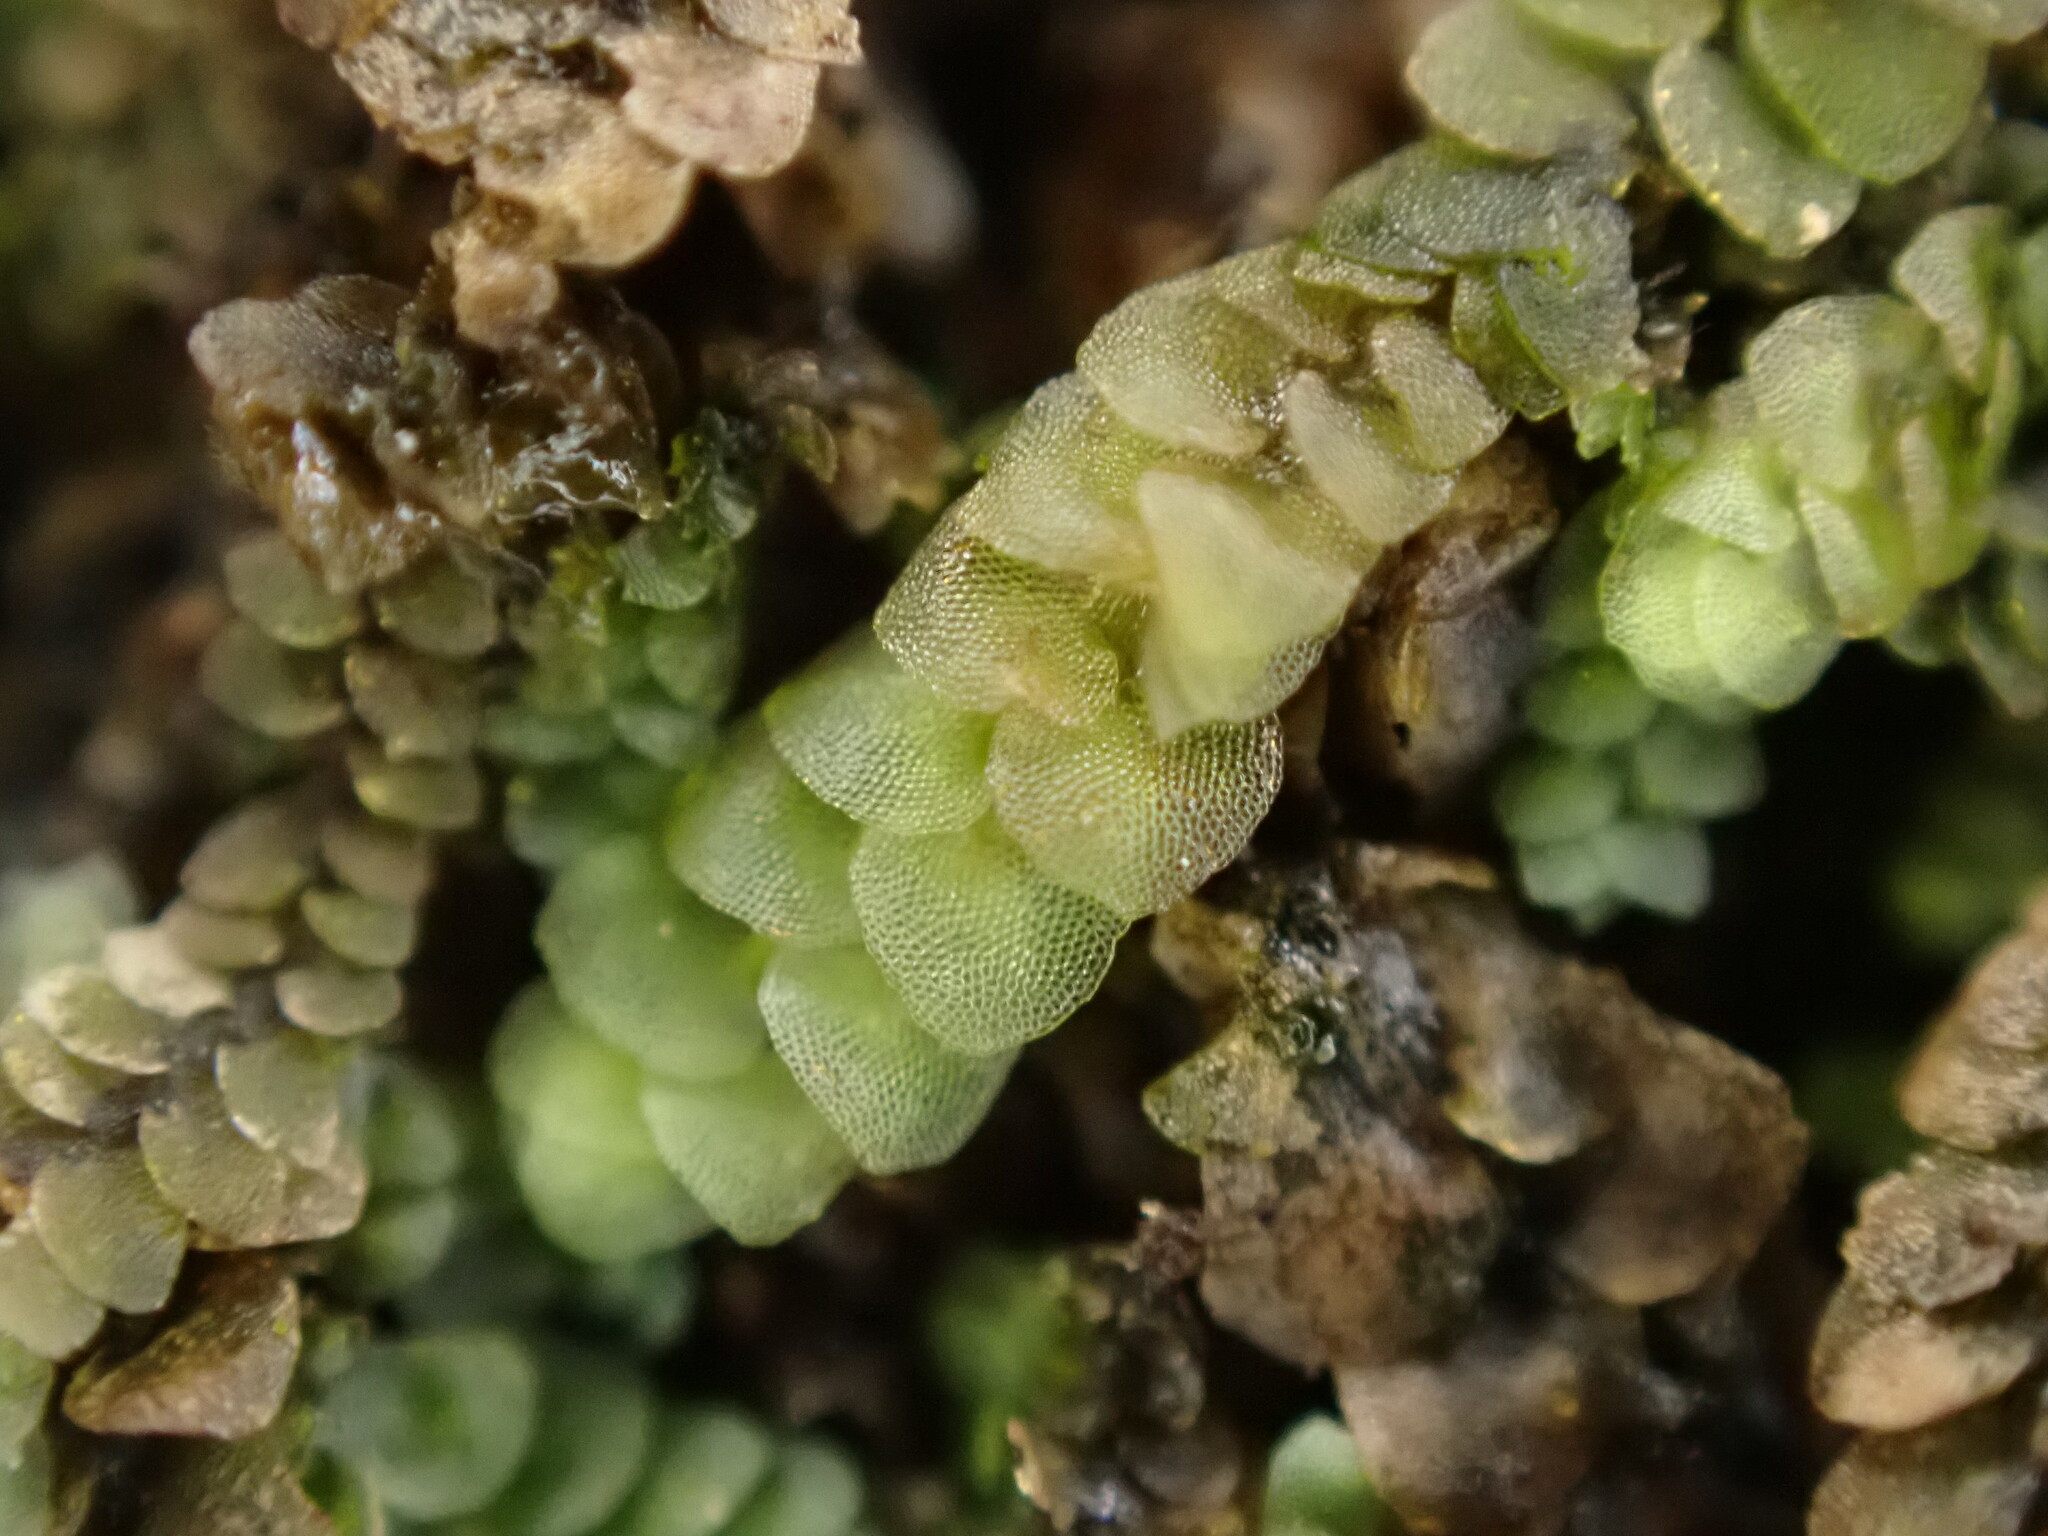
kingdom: Plantae
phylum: Marchantiophyta
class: Jungermanniopsida
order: Jungermanniales
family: Calypogeiaceae
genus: Calypogeia
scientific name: Calypogeia muelleriana
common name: Mueller s pouchwort
